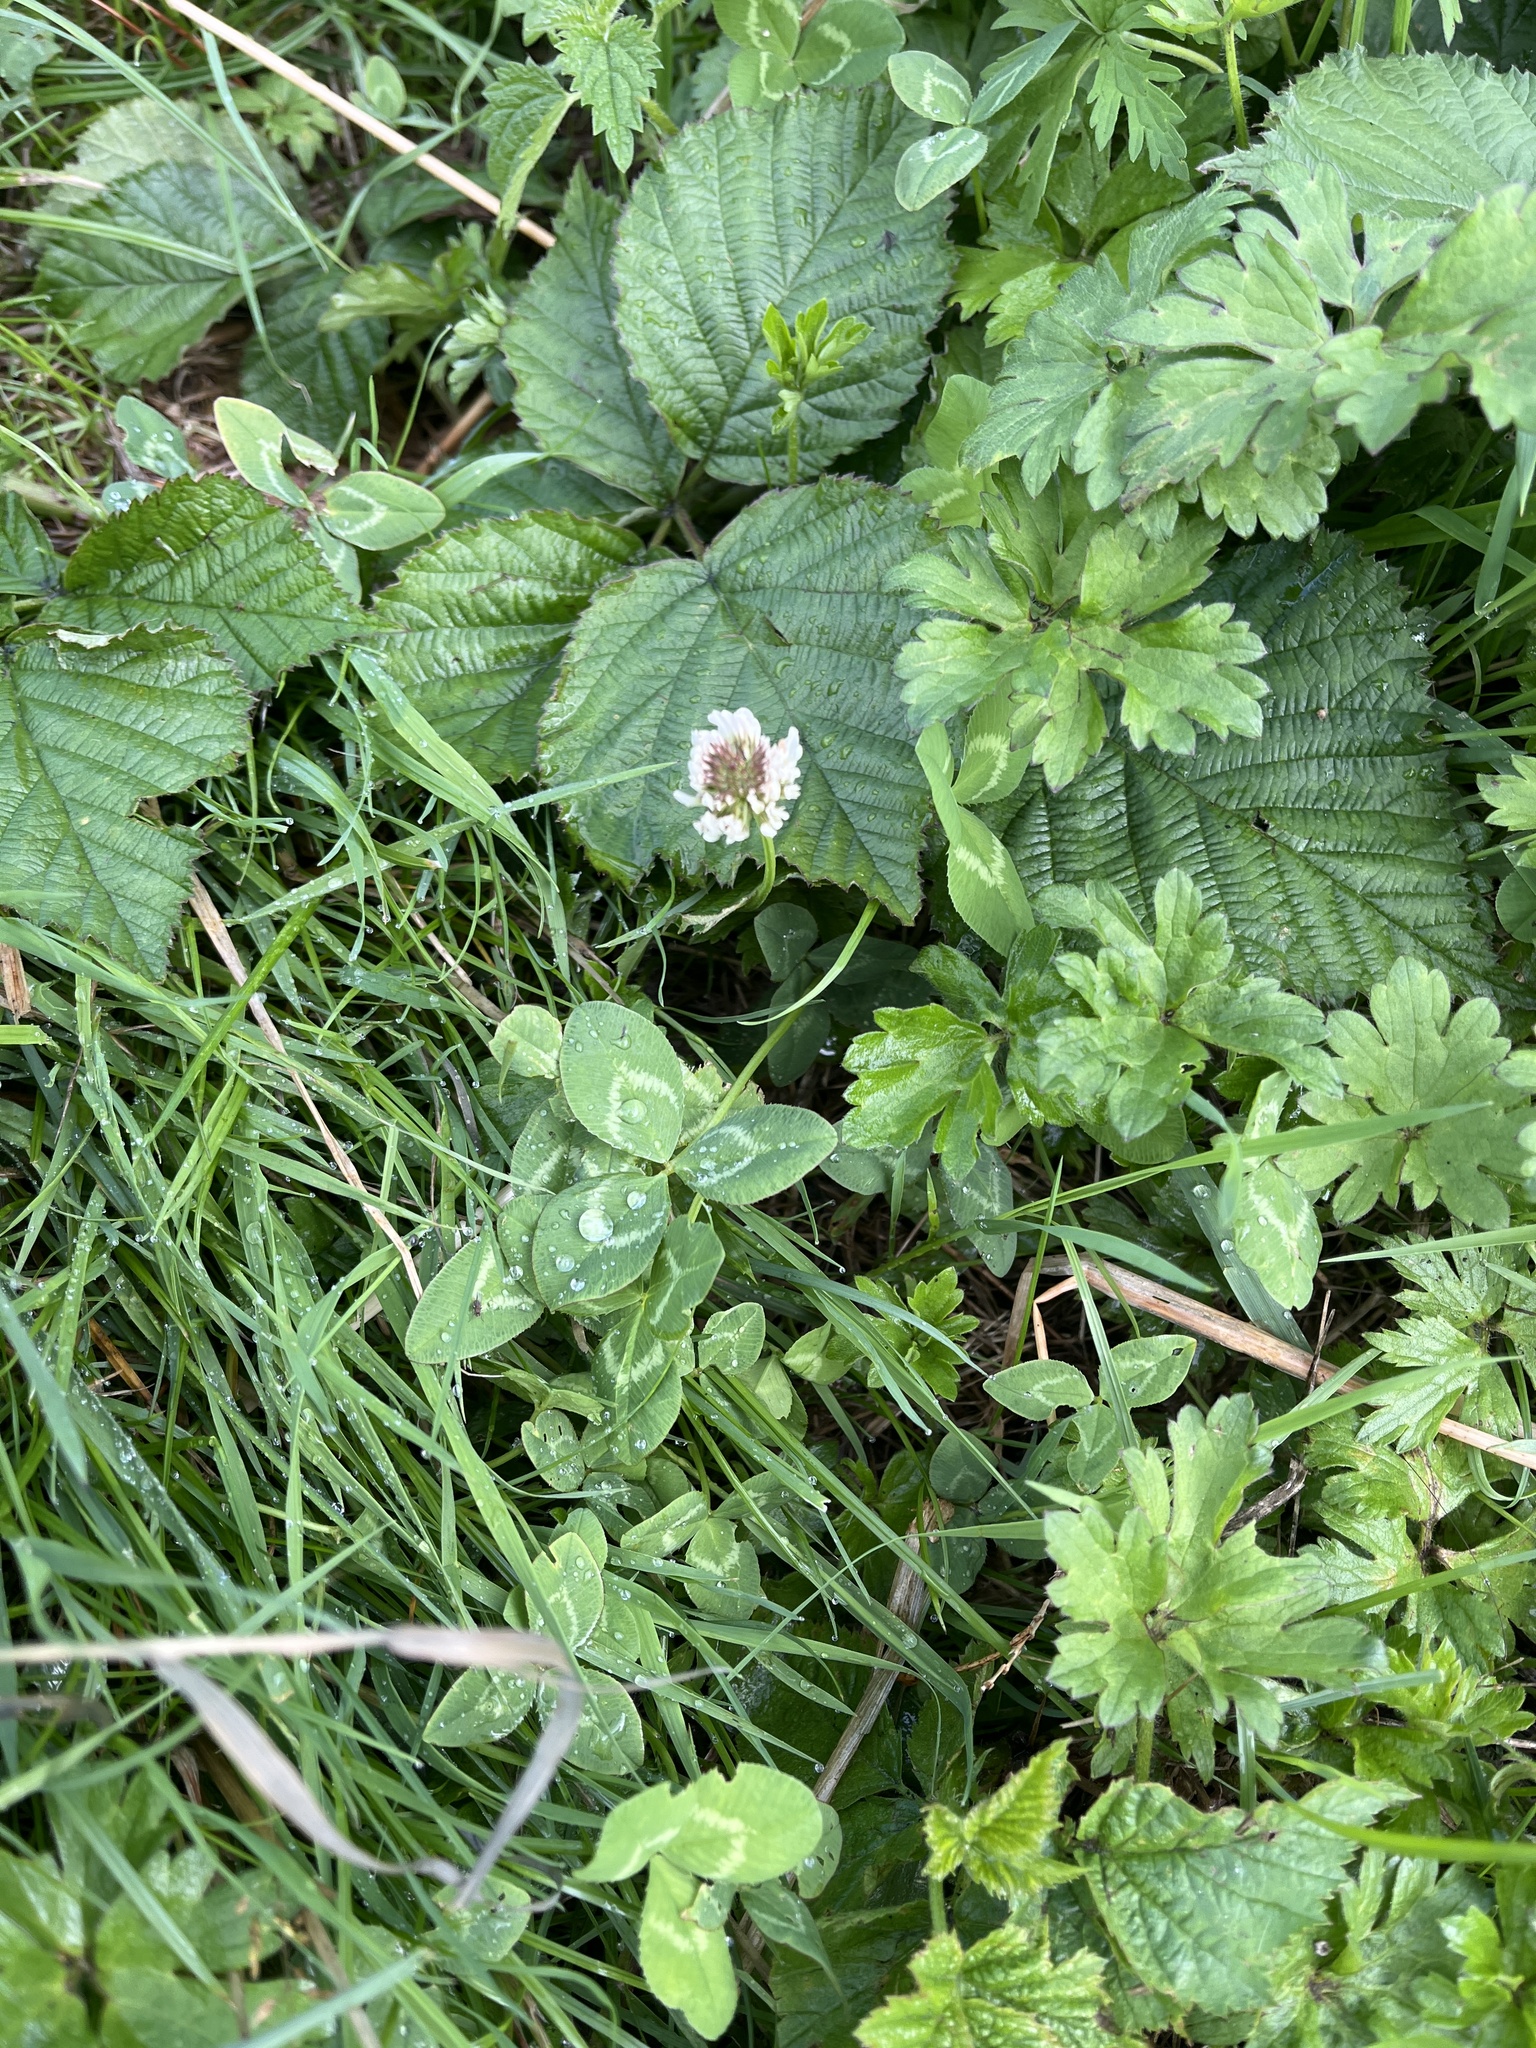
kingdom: Plantae
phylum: Tracheophyta
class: Magnoliopsida
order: Fabales
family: Fabaceae
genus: Trifolium
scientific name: Trifolium repens
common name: White clover
